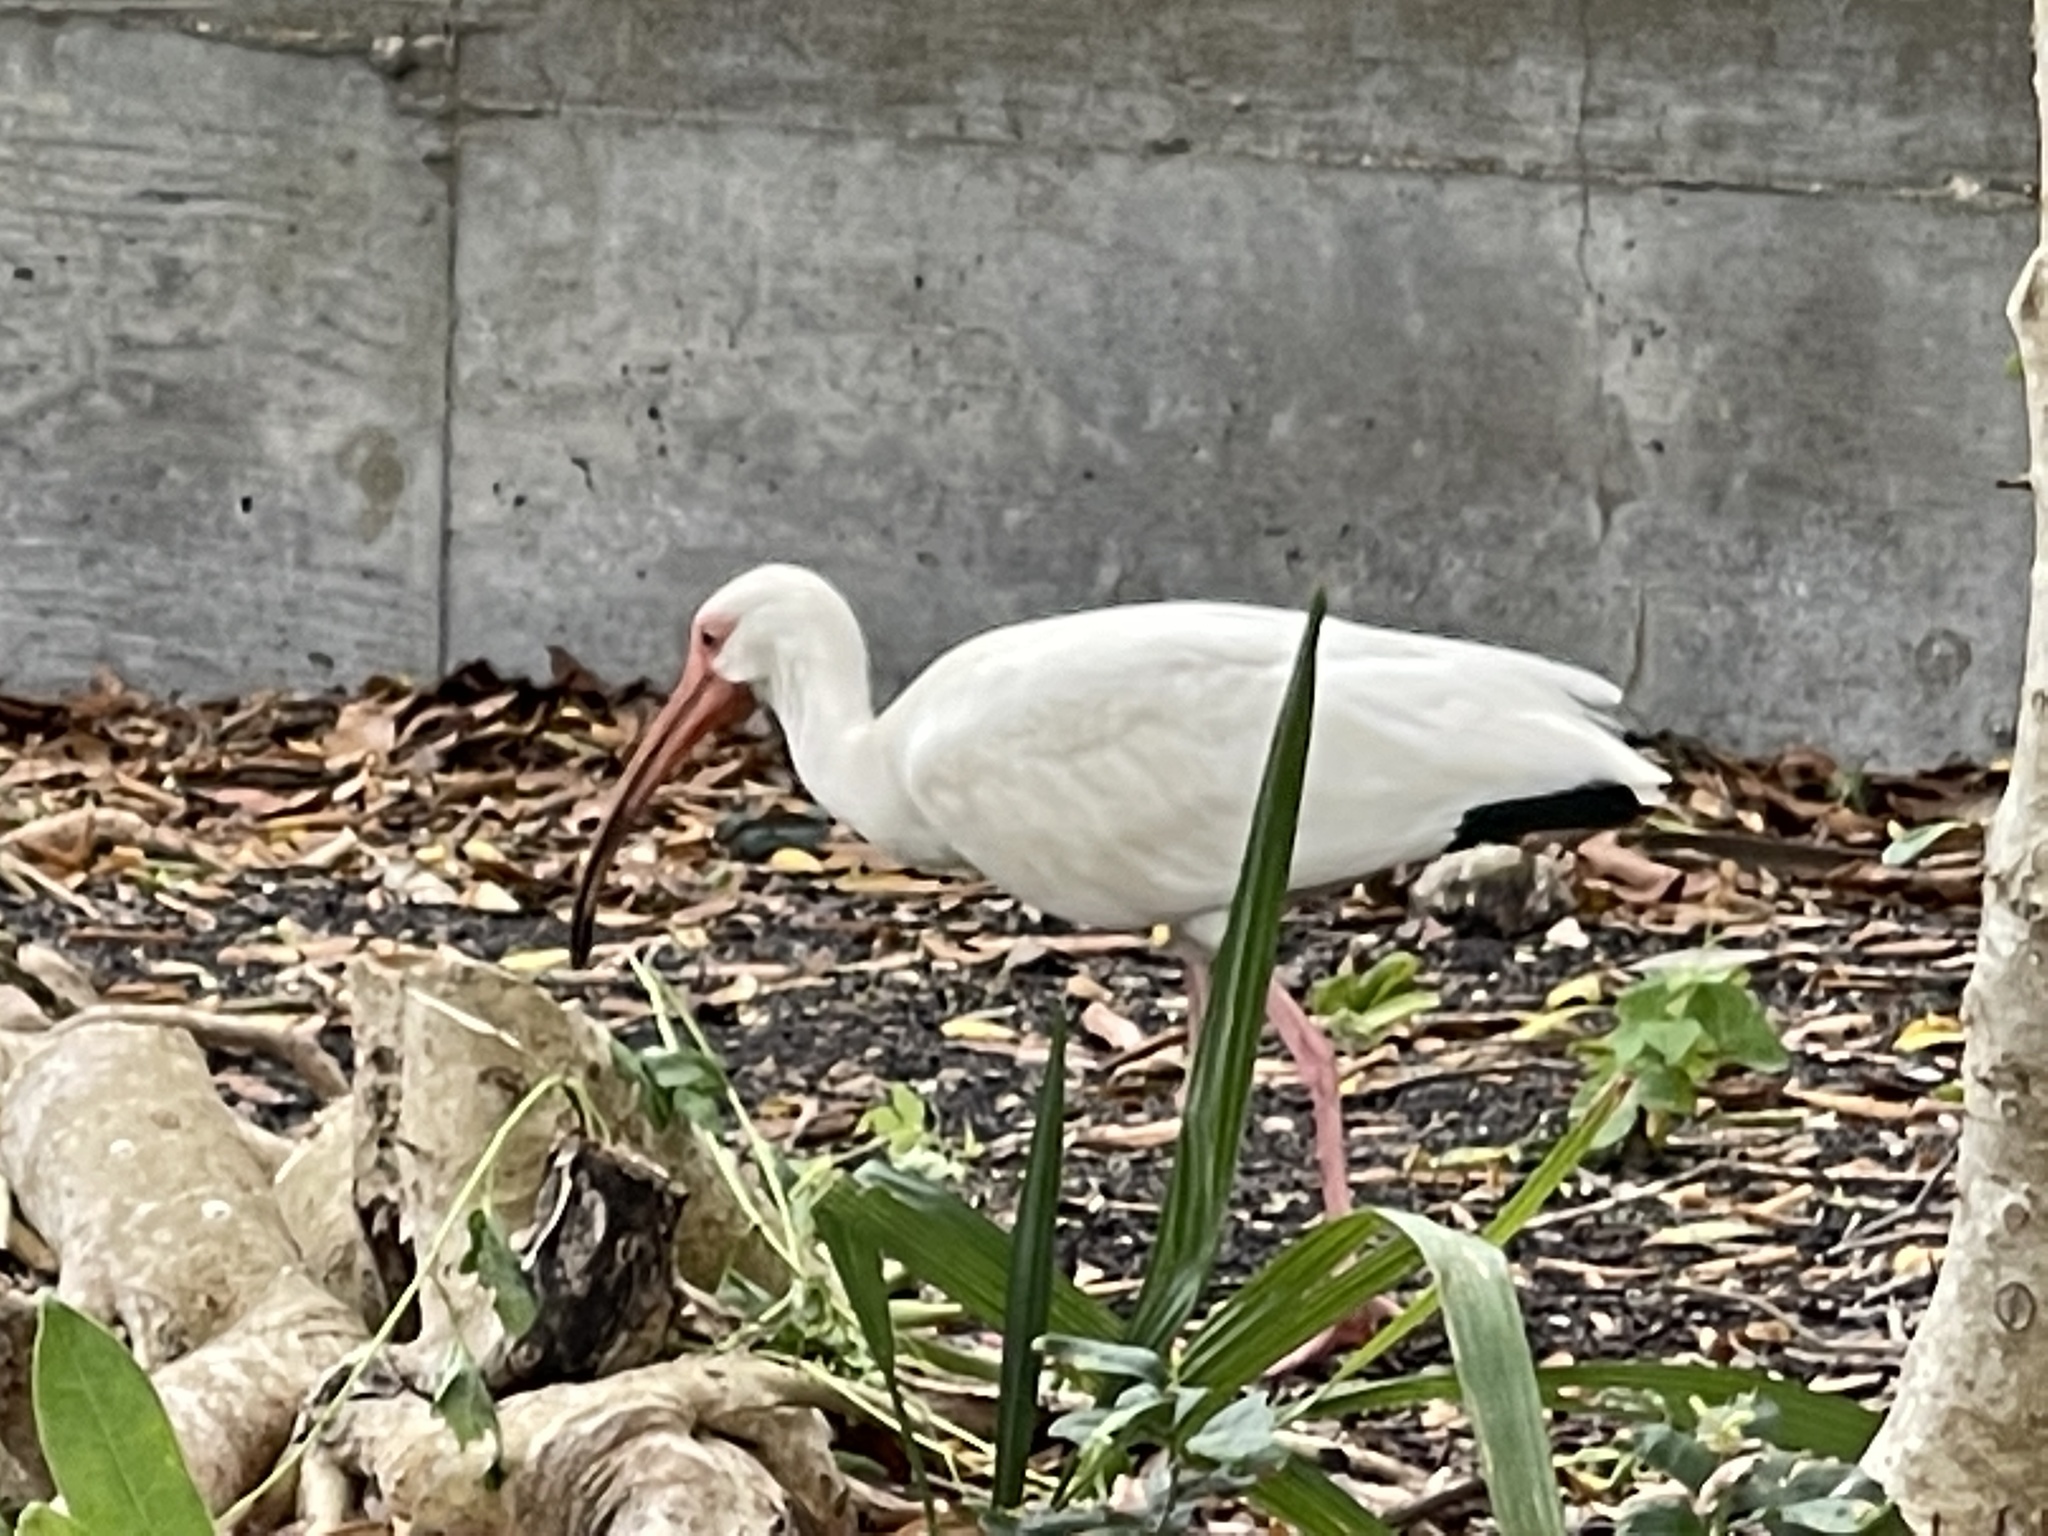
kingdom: Animalia
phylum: Chordata
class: Aves
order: Pelecaniformes
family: Threskiornithidae
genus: Eudocimus
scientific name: Eudocimus albus
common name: White ibis
